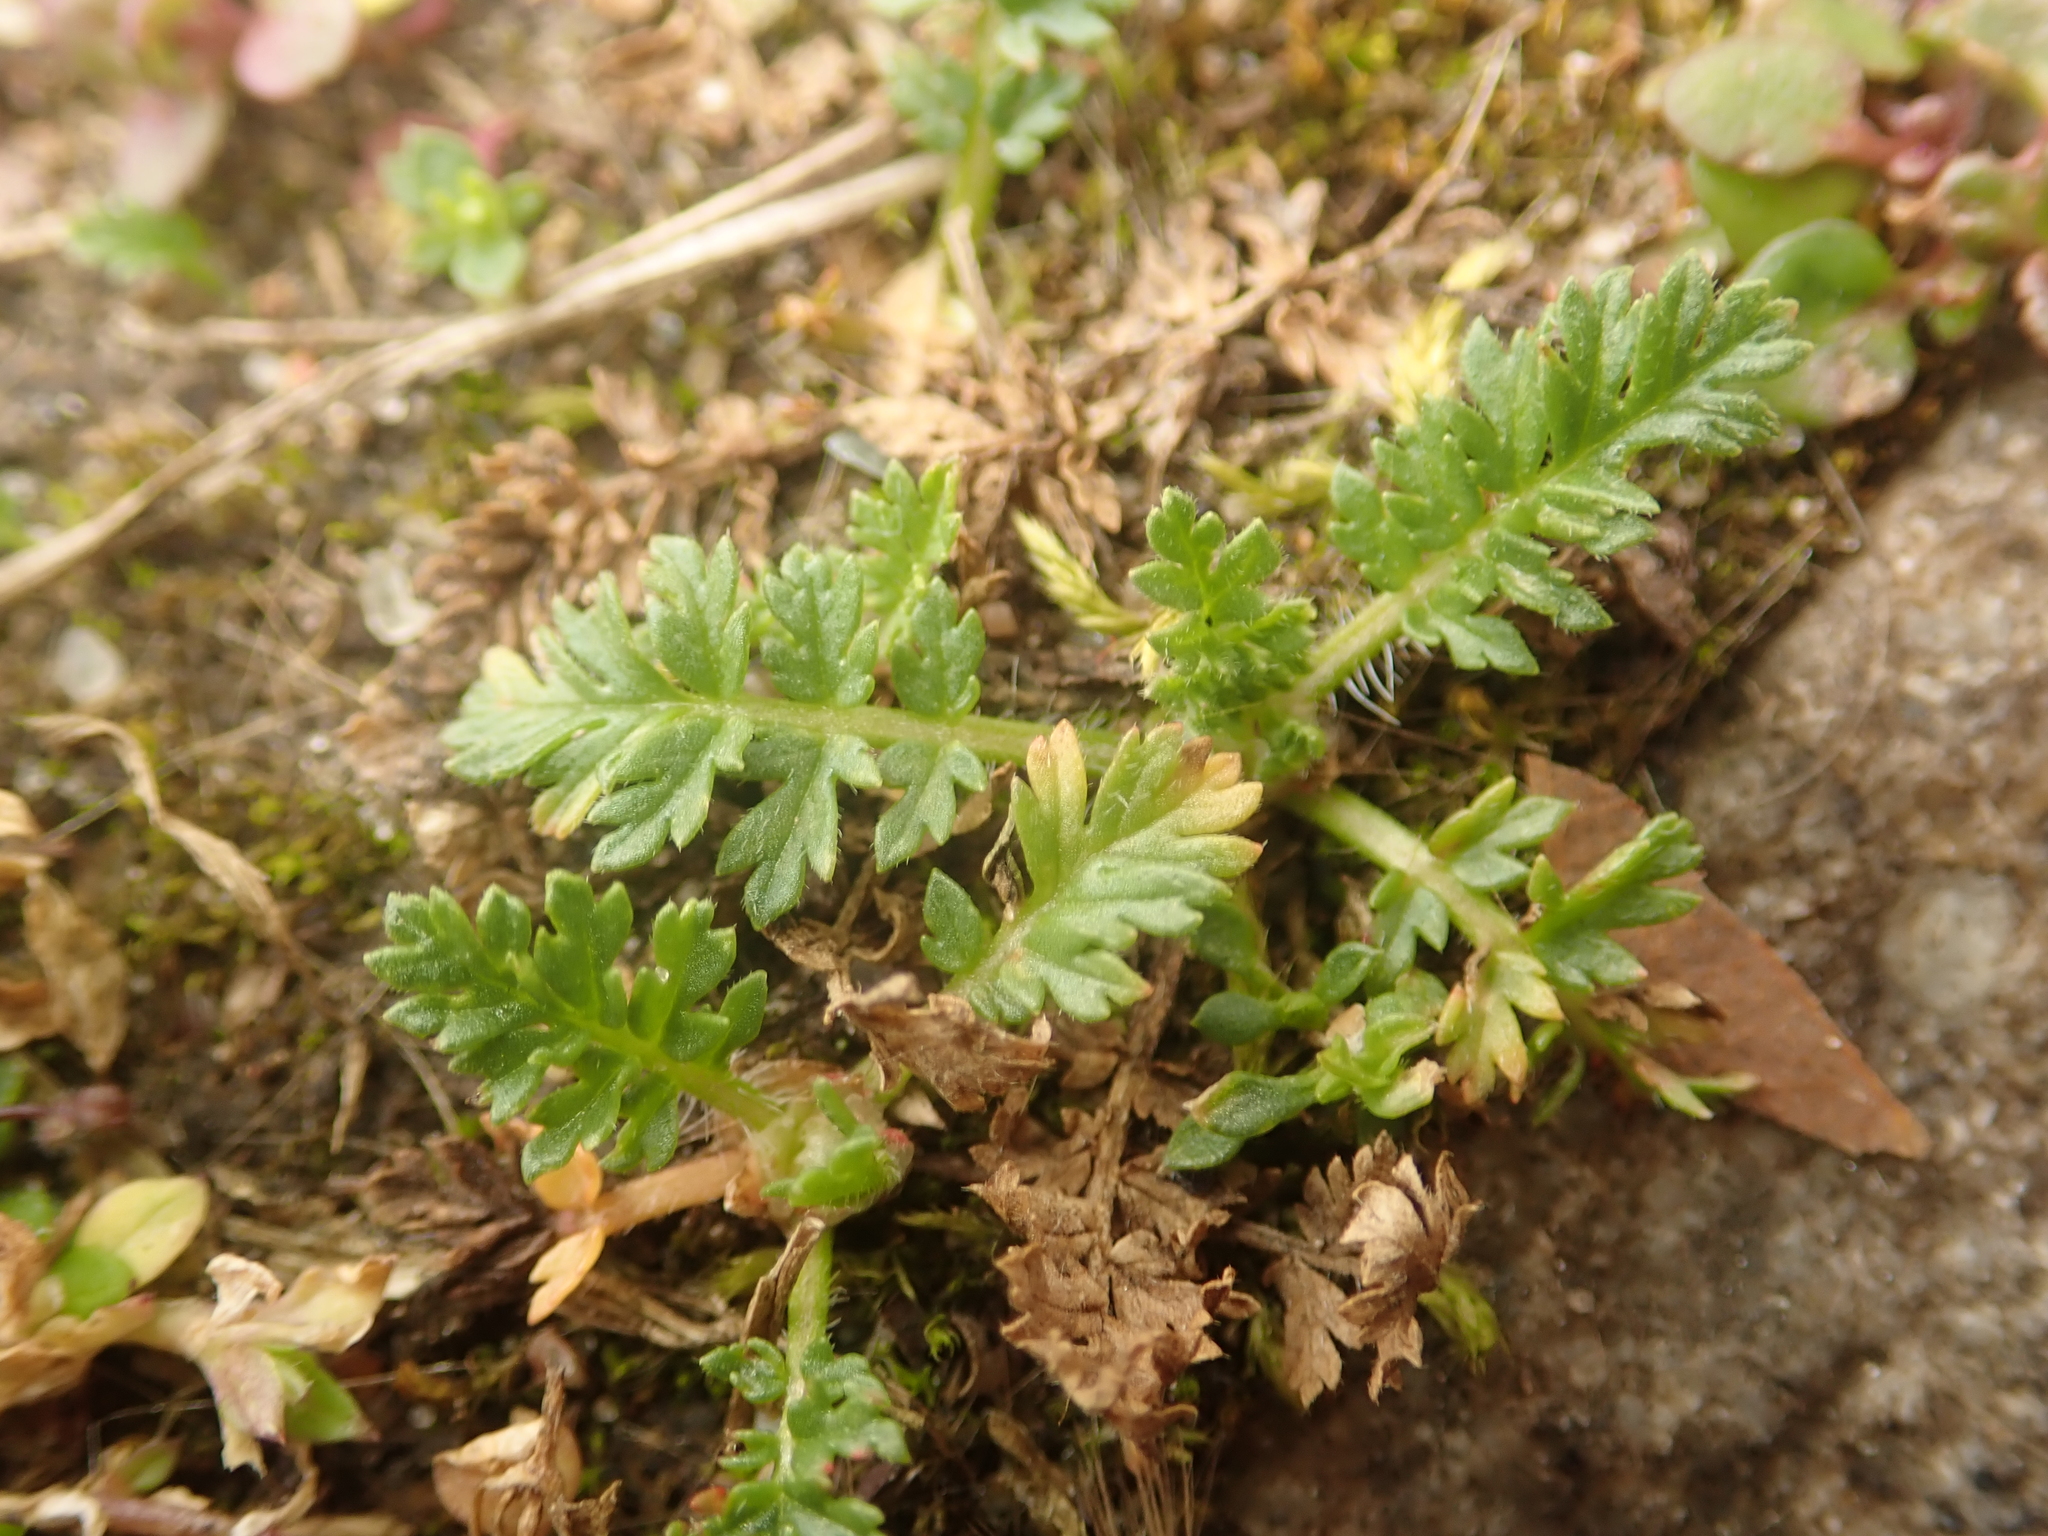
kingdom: Plantae
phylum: Tracheophyta
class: Magnoliopsida
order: Geraniales
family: Geraniaceae
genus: Erodium
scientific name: Erodium cicutarium
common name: Common stork's-bill
